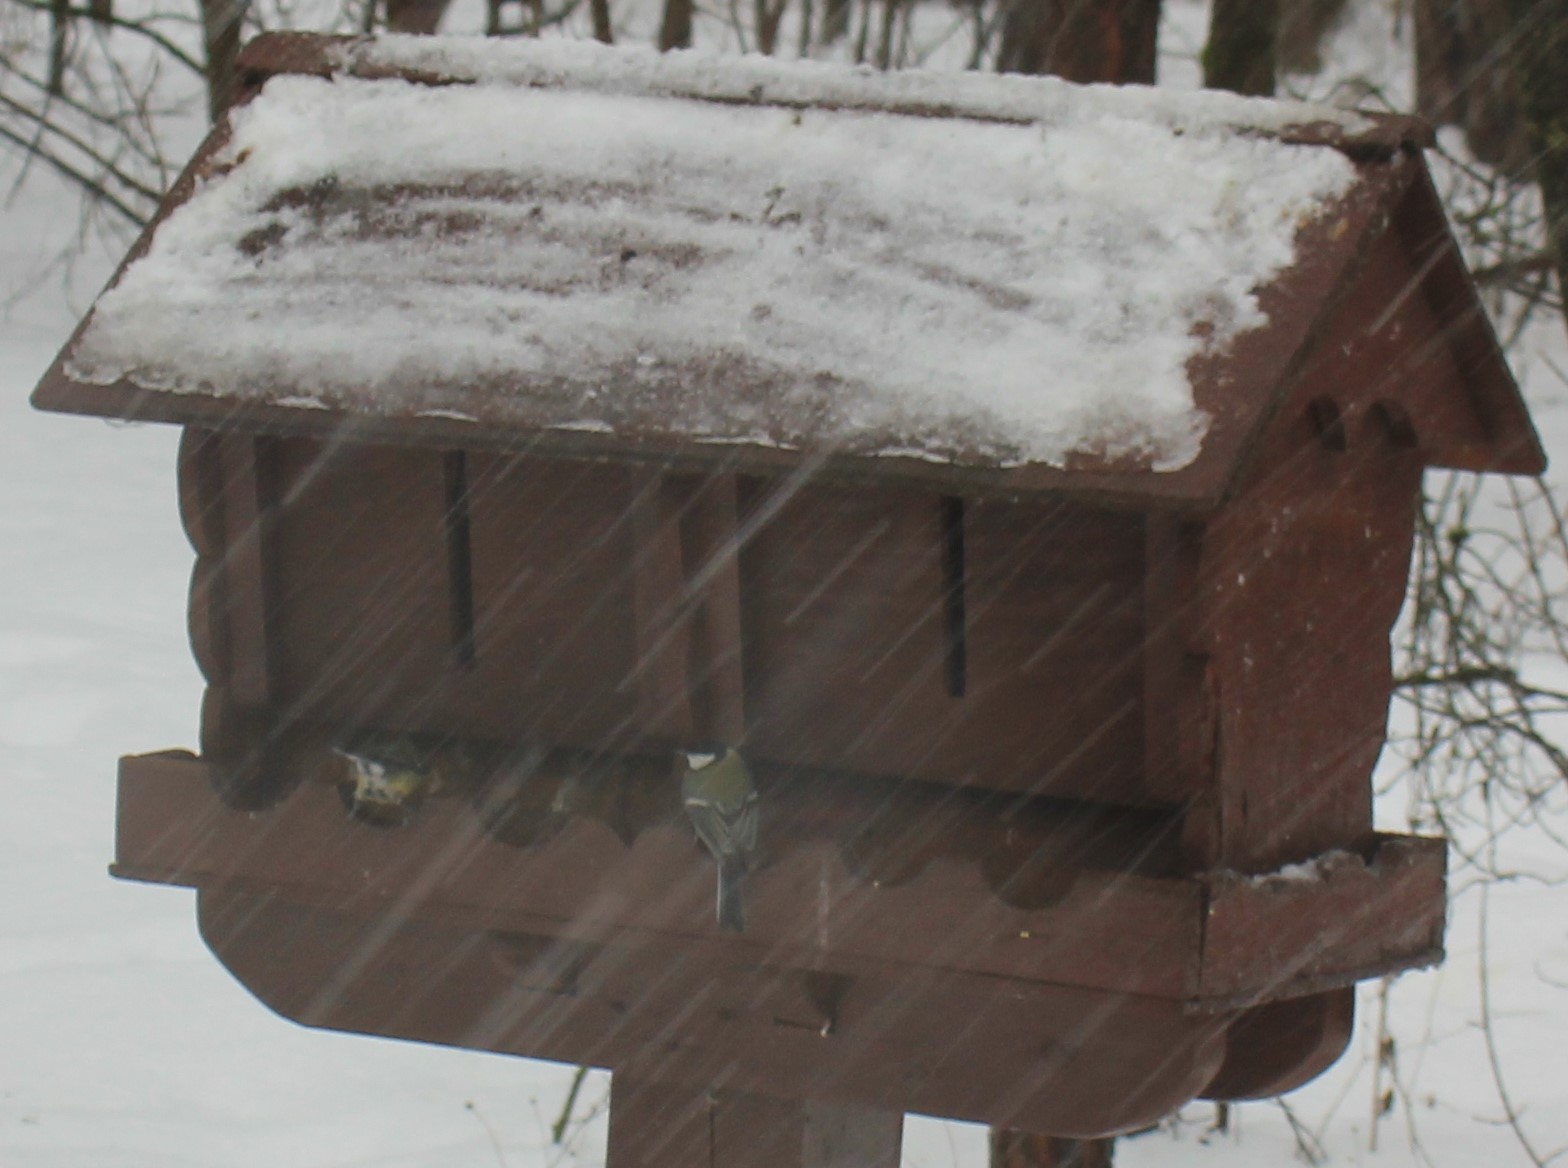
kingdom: Animalia
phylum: Chordata
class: Aves
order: Passeriformes
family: Paridae
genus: Parus
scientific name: Parus major
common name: Great tit
